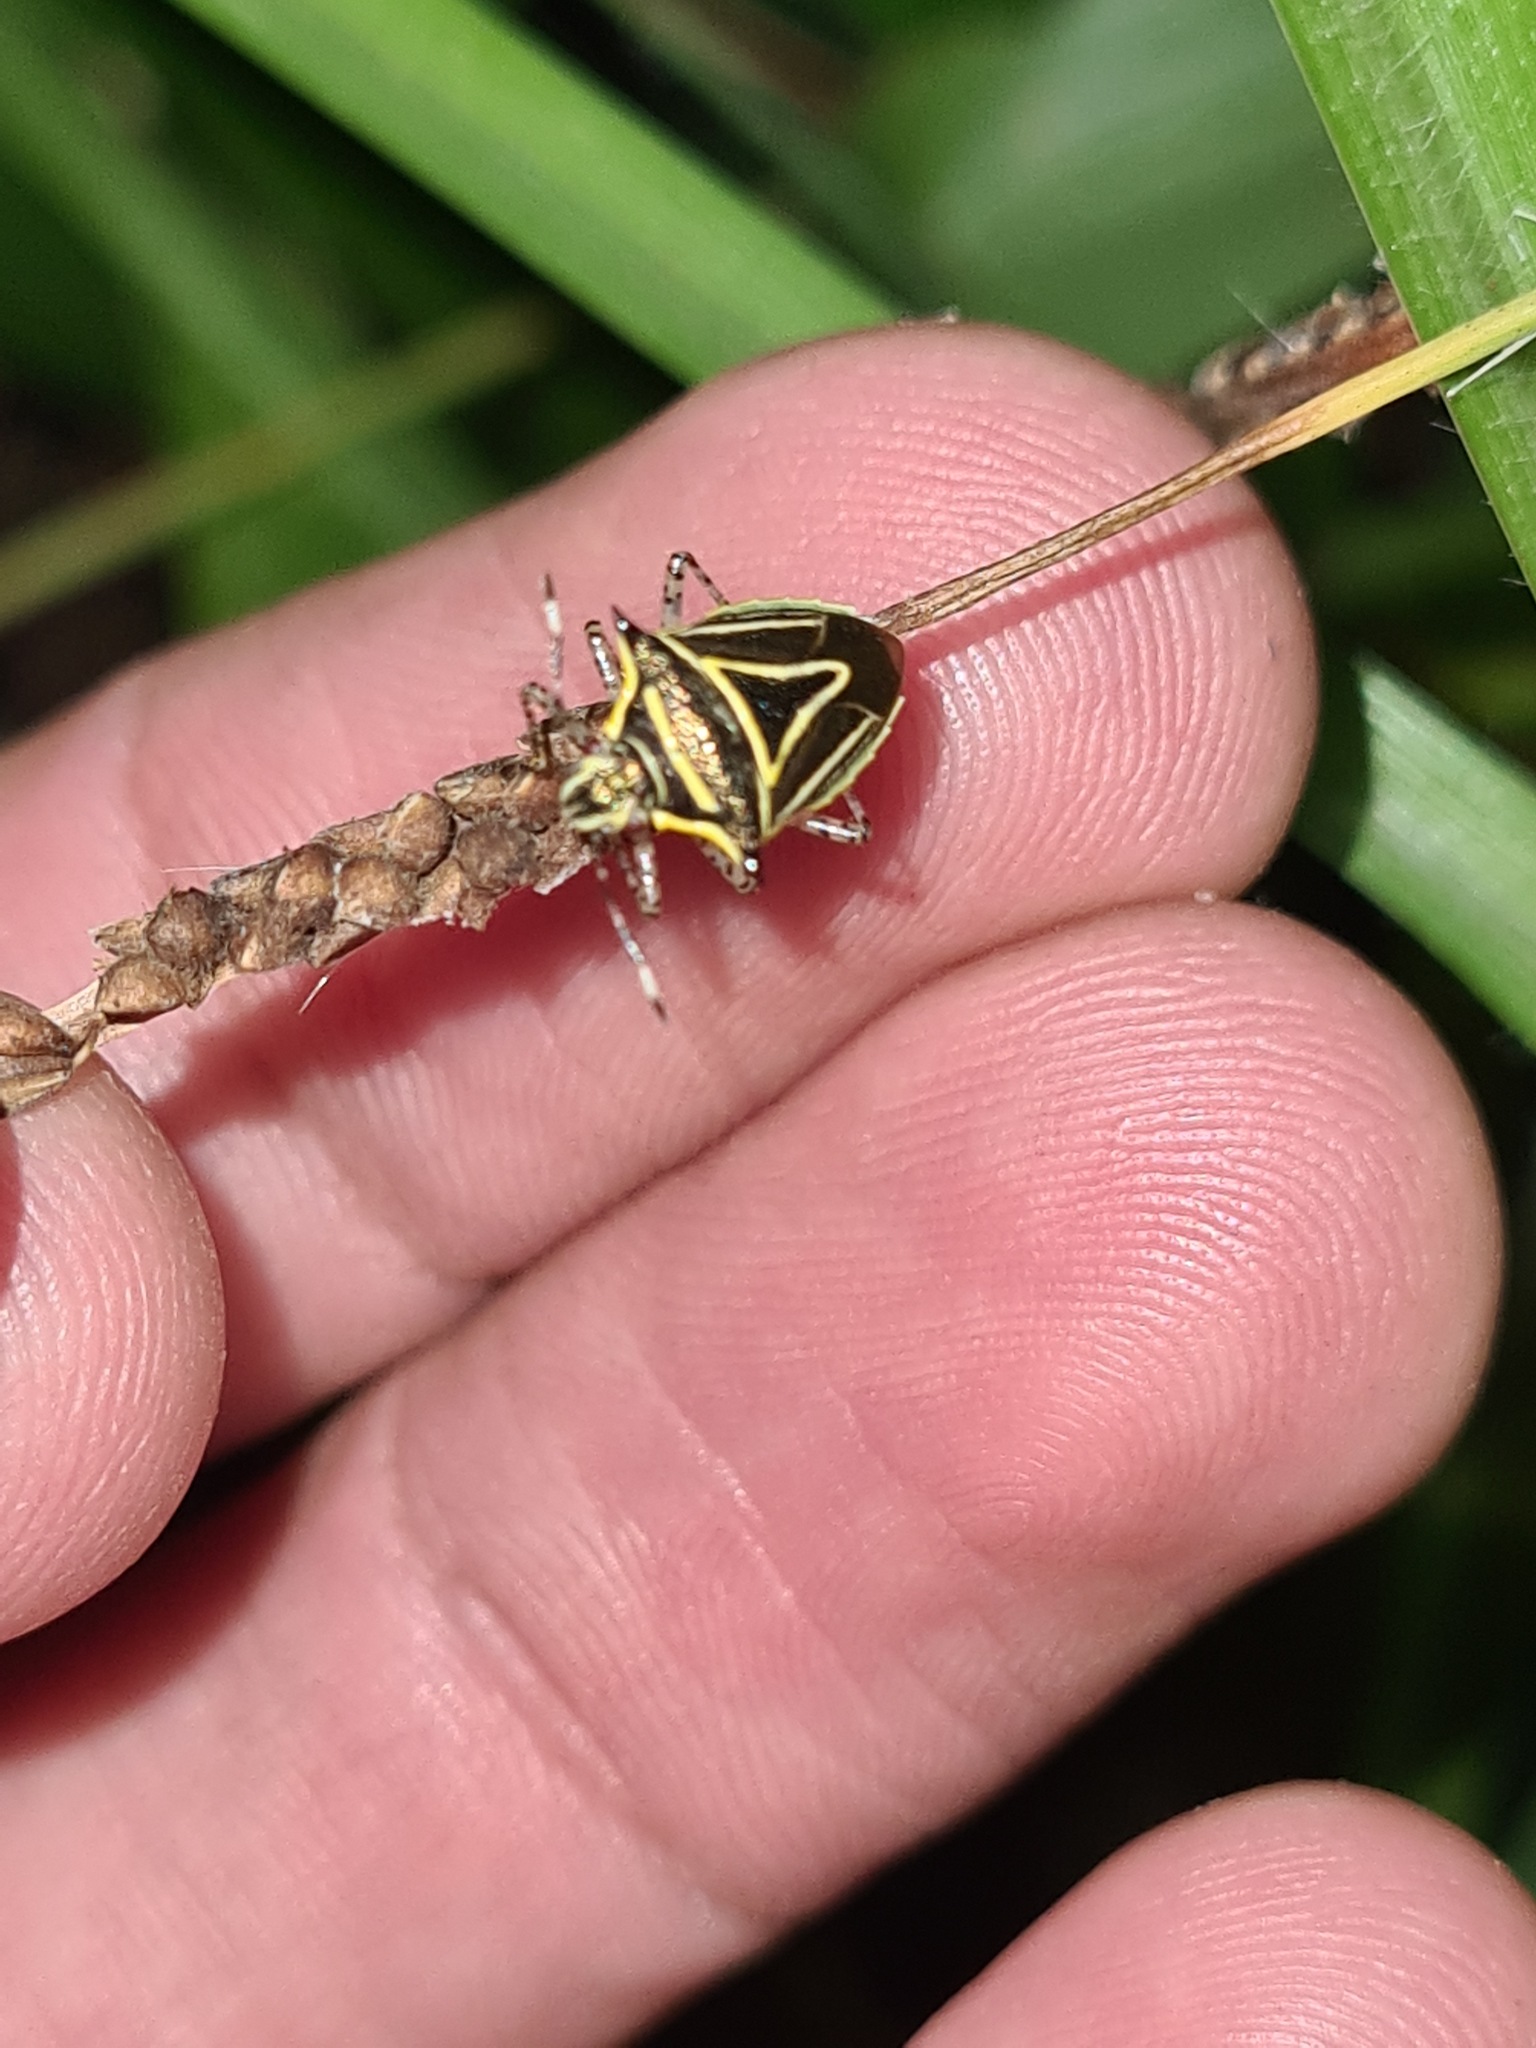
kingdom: Animalia
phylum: Arthropoda
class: Insecta
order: Hemiptera
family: Pentatomidae
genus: Mormidea
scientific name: Mormidea
